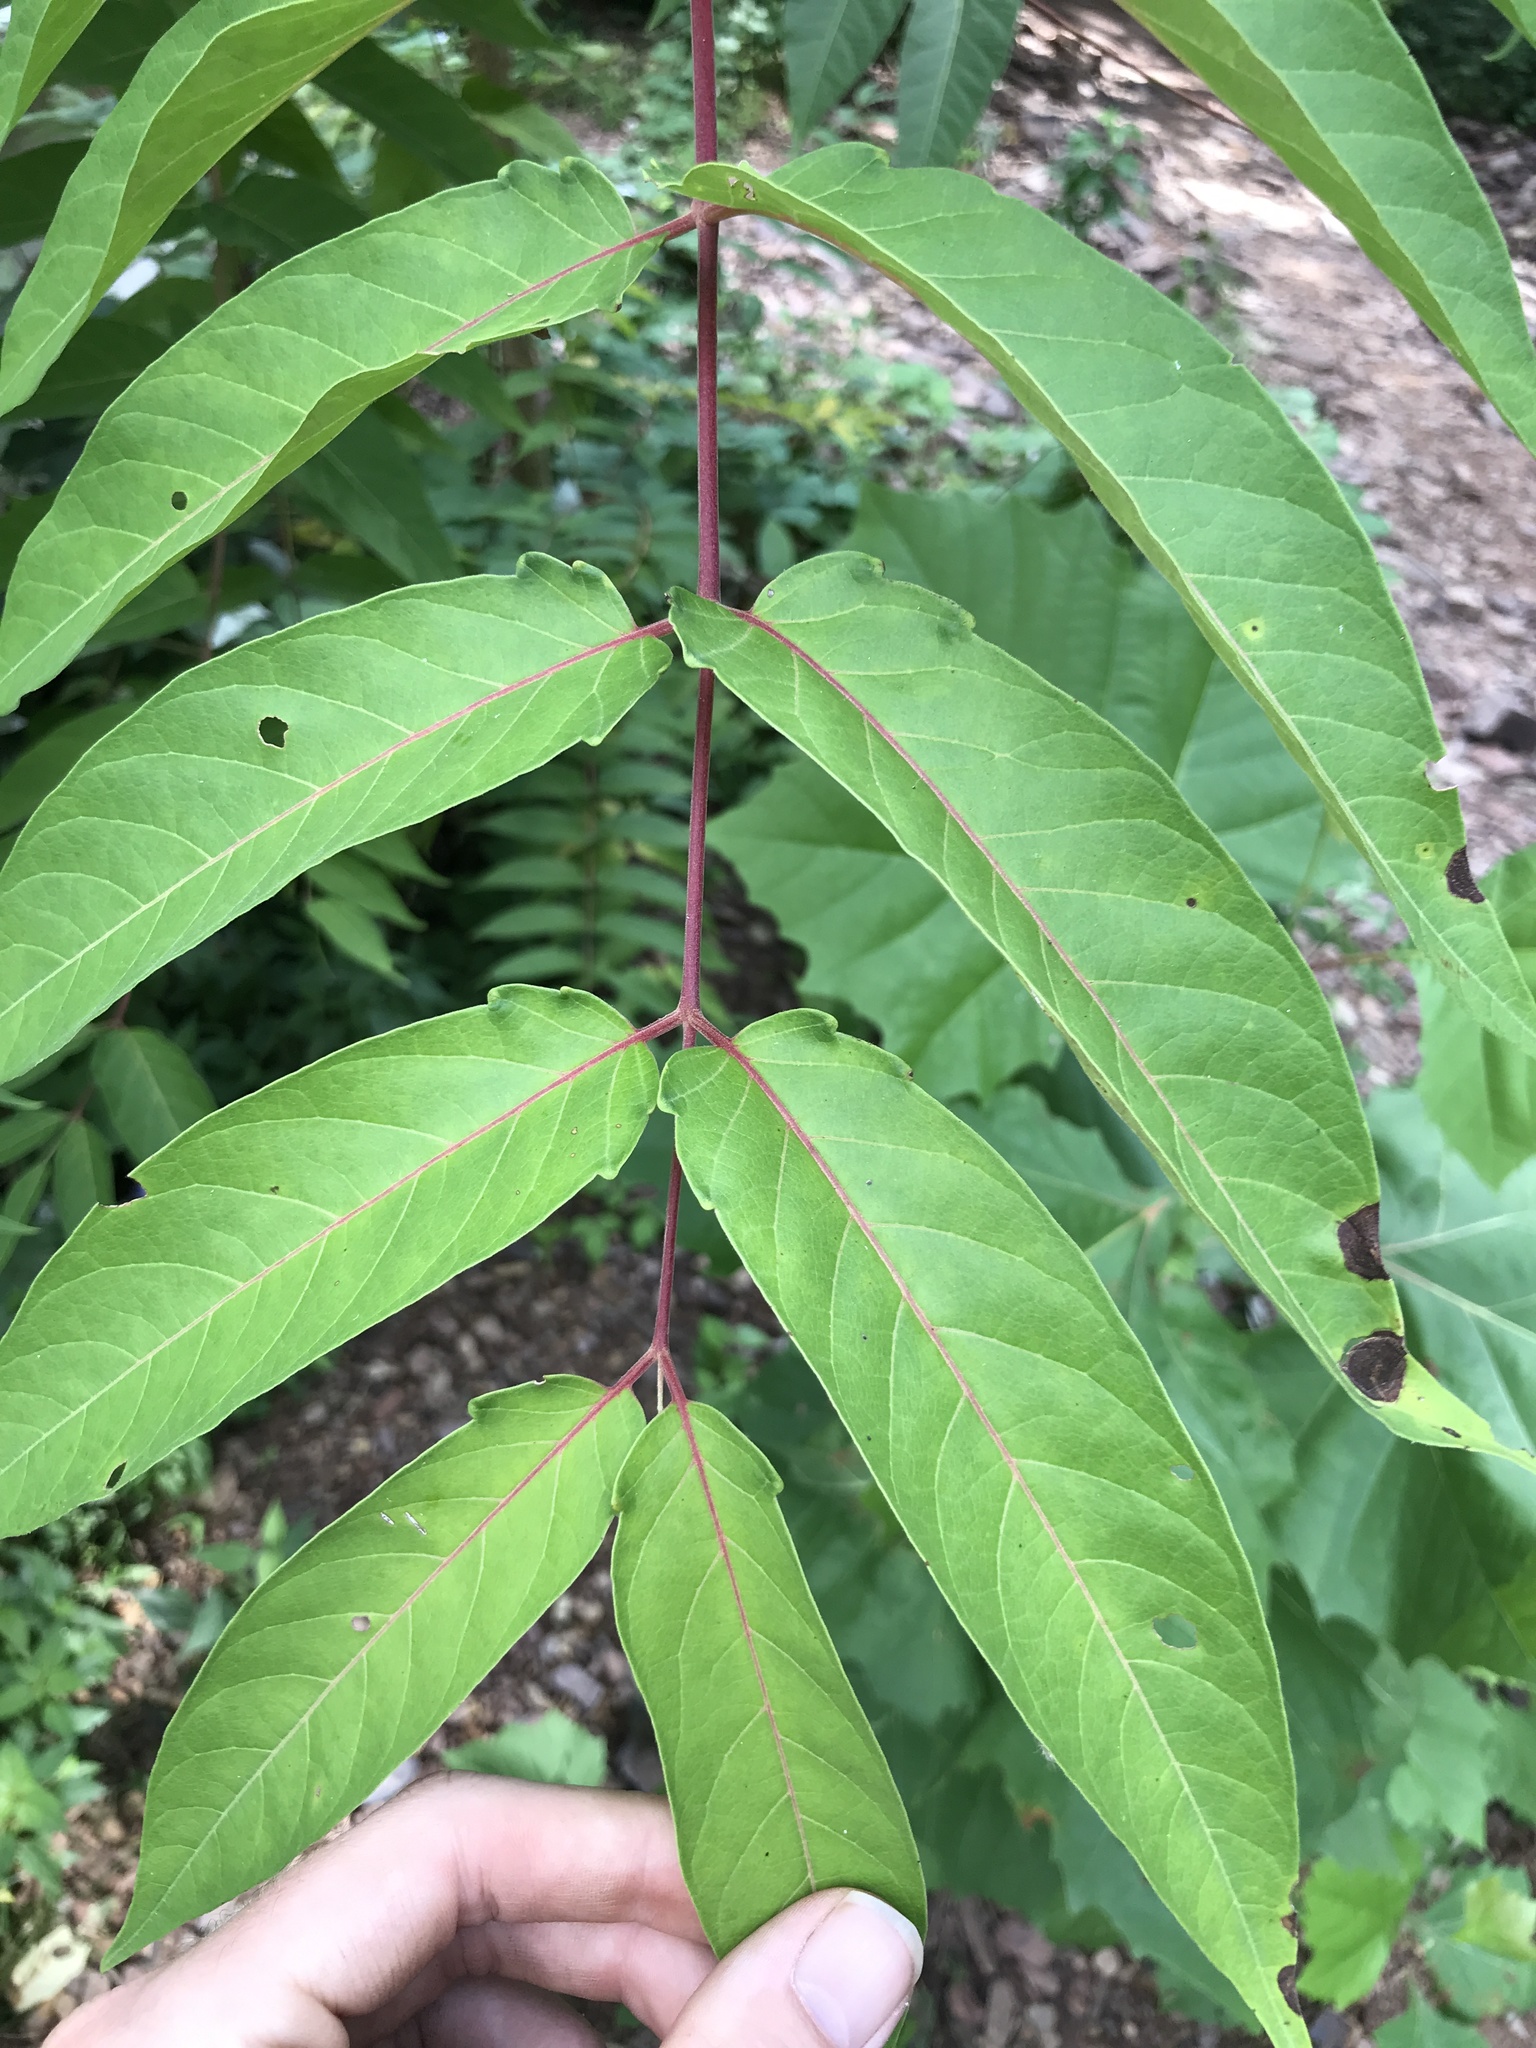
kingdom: Plantae
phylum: Tracheophyta
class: Magnoliopsida
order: Sapindales
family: Simaroubaceae
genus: Ailanthus
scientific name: Ailanthus altissima
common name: Tree-of-heaven
